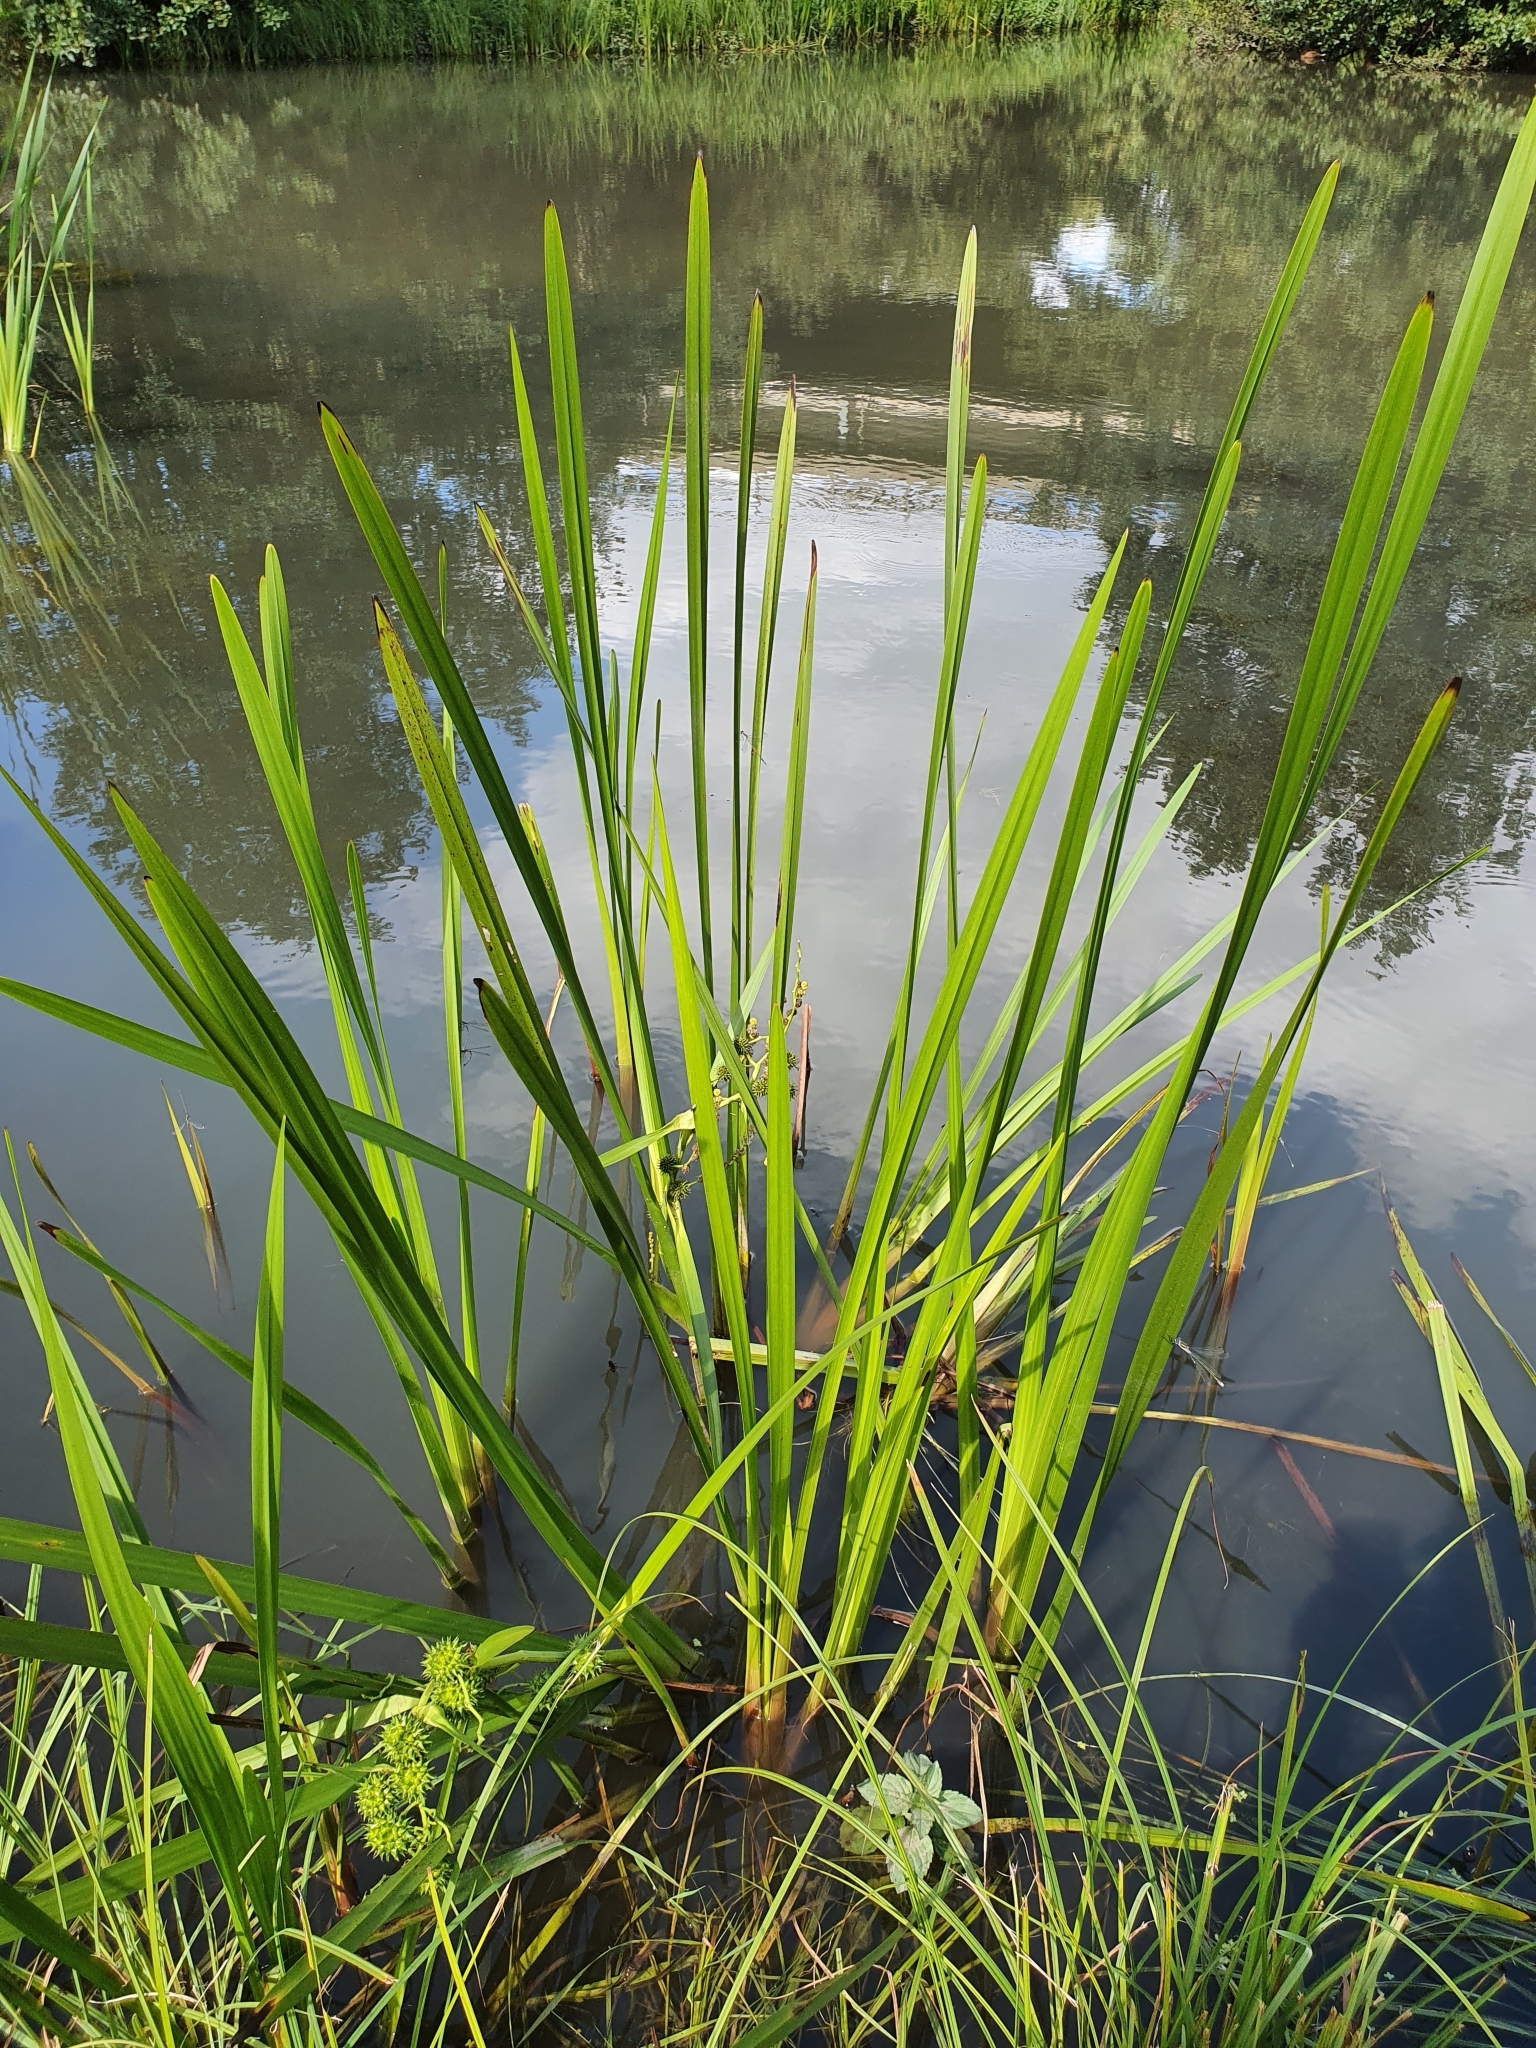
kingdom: Plantae
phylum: Tracheophyta
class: Liliopsida
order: Poales
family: Typhaceae
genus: Sparganium
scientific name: Sparganium erectum
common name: Branched bur-reed
